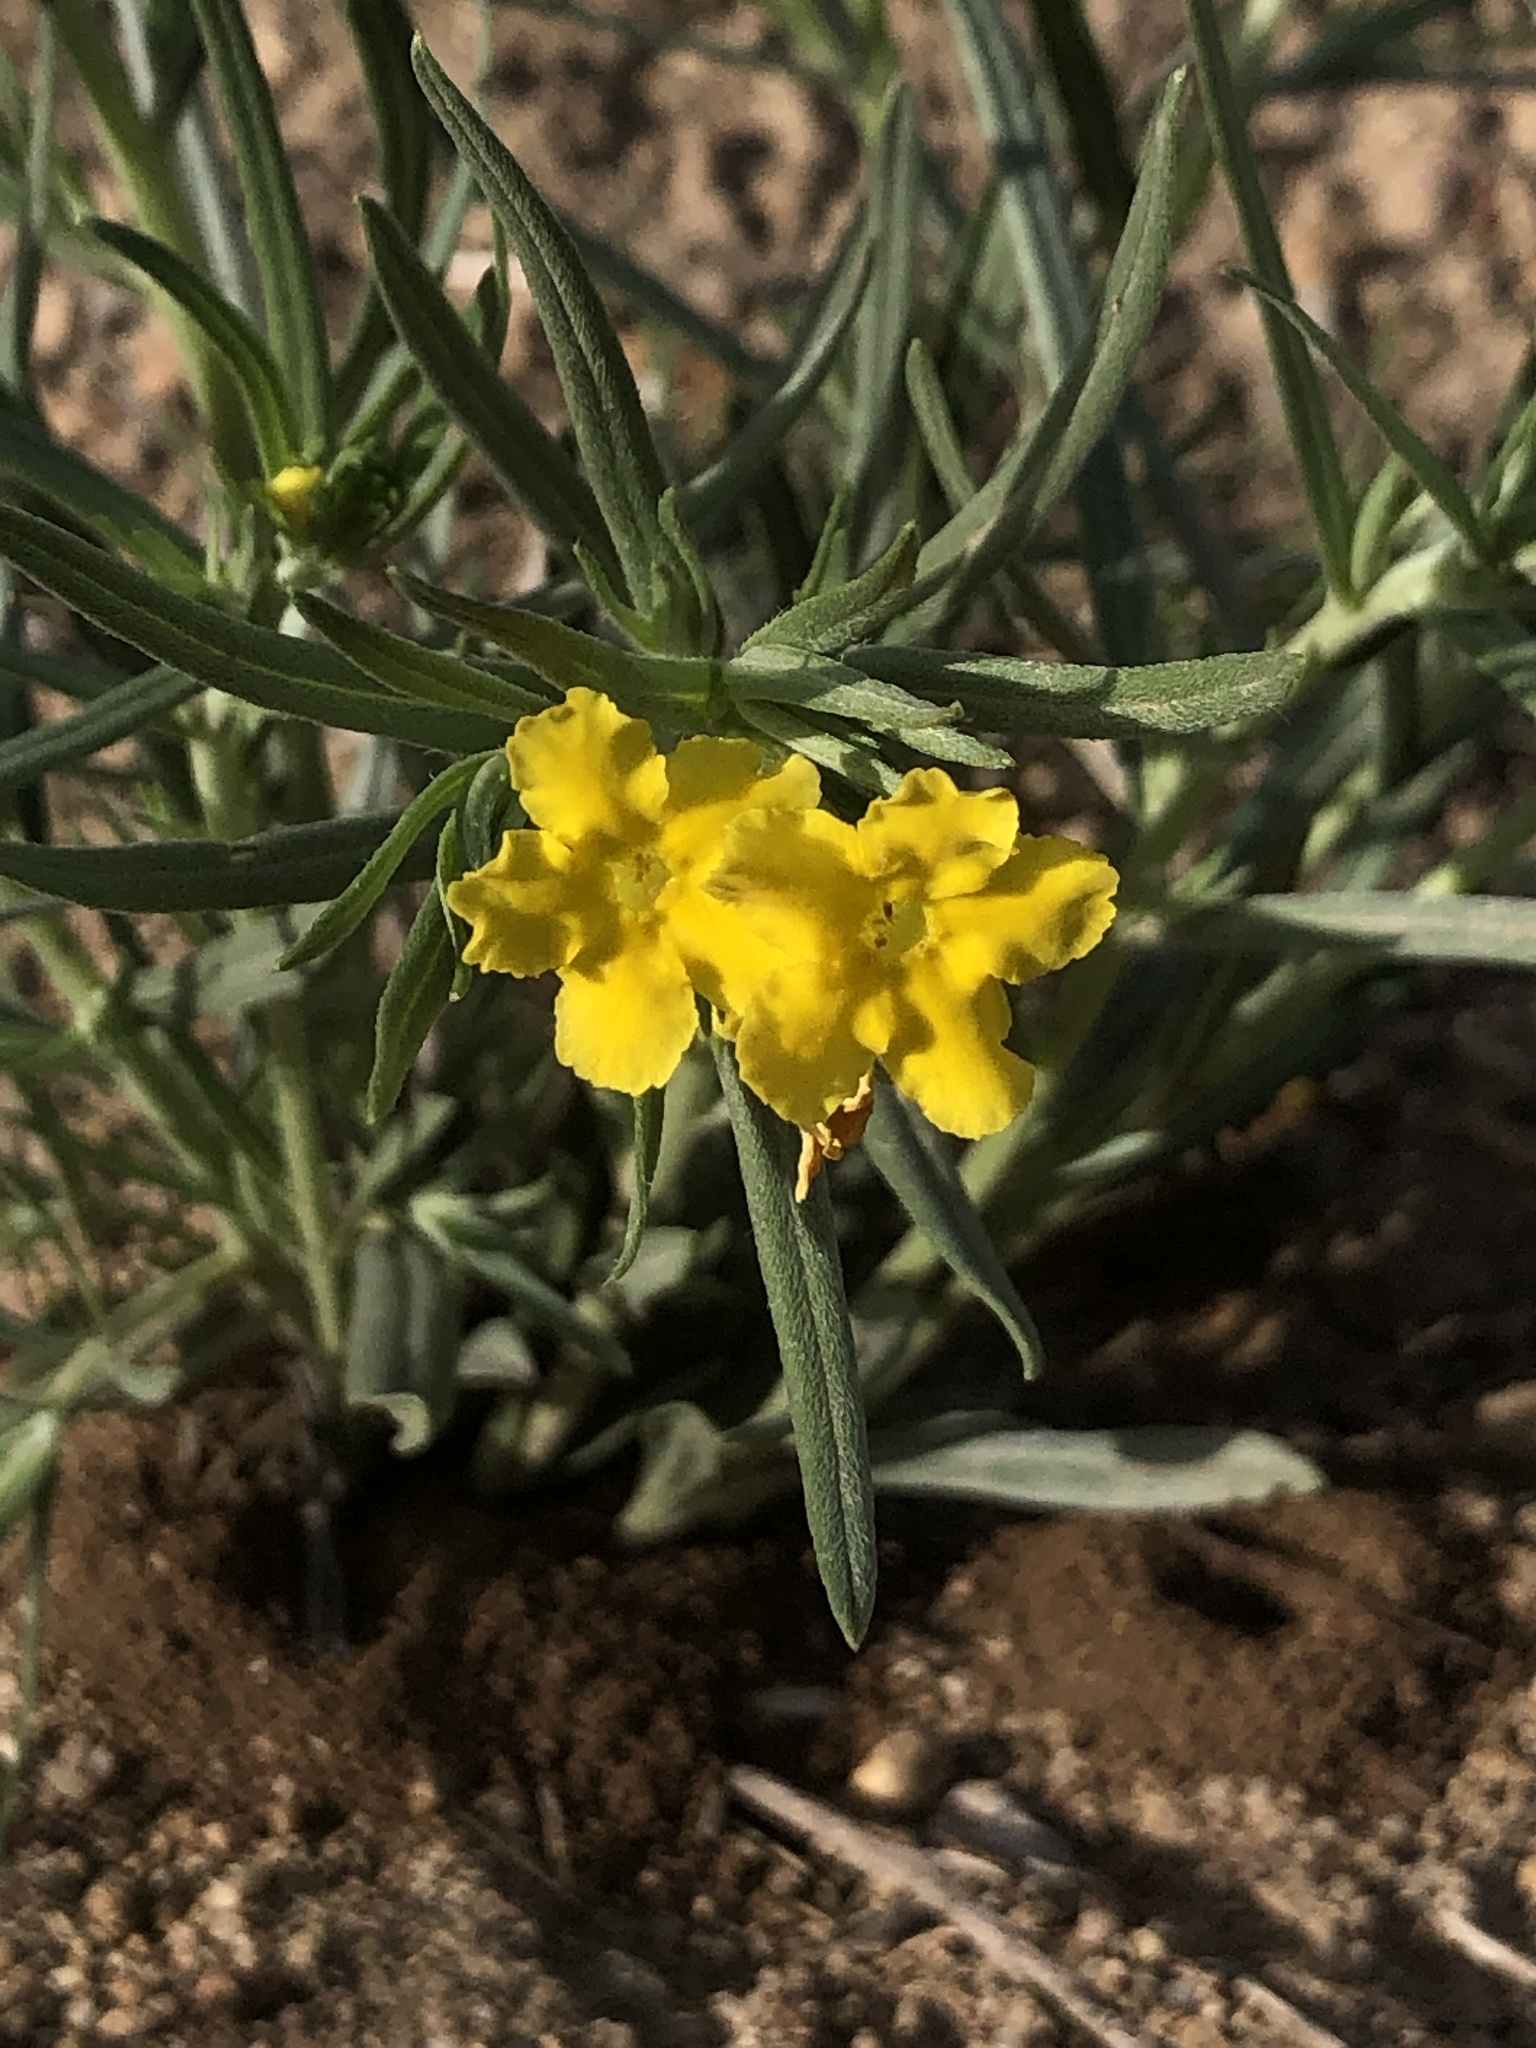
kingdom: Plantae
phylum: Tracheophyta
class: Magnoliopsida
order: Boraginales
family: Boraginaceae
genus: Lithospermum
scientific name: Lithospermum incisum
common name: Fringed gromwell
